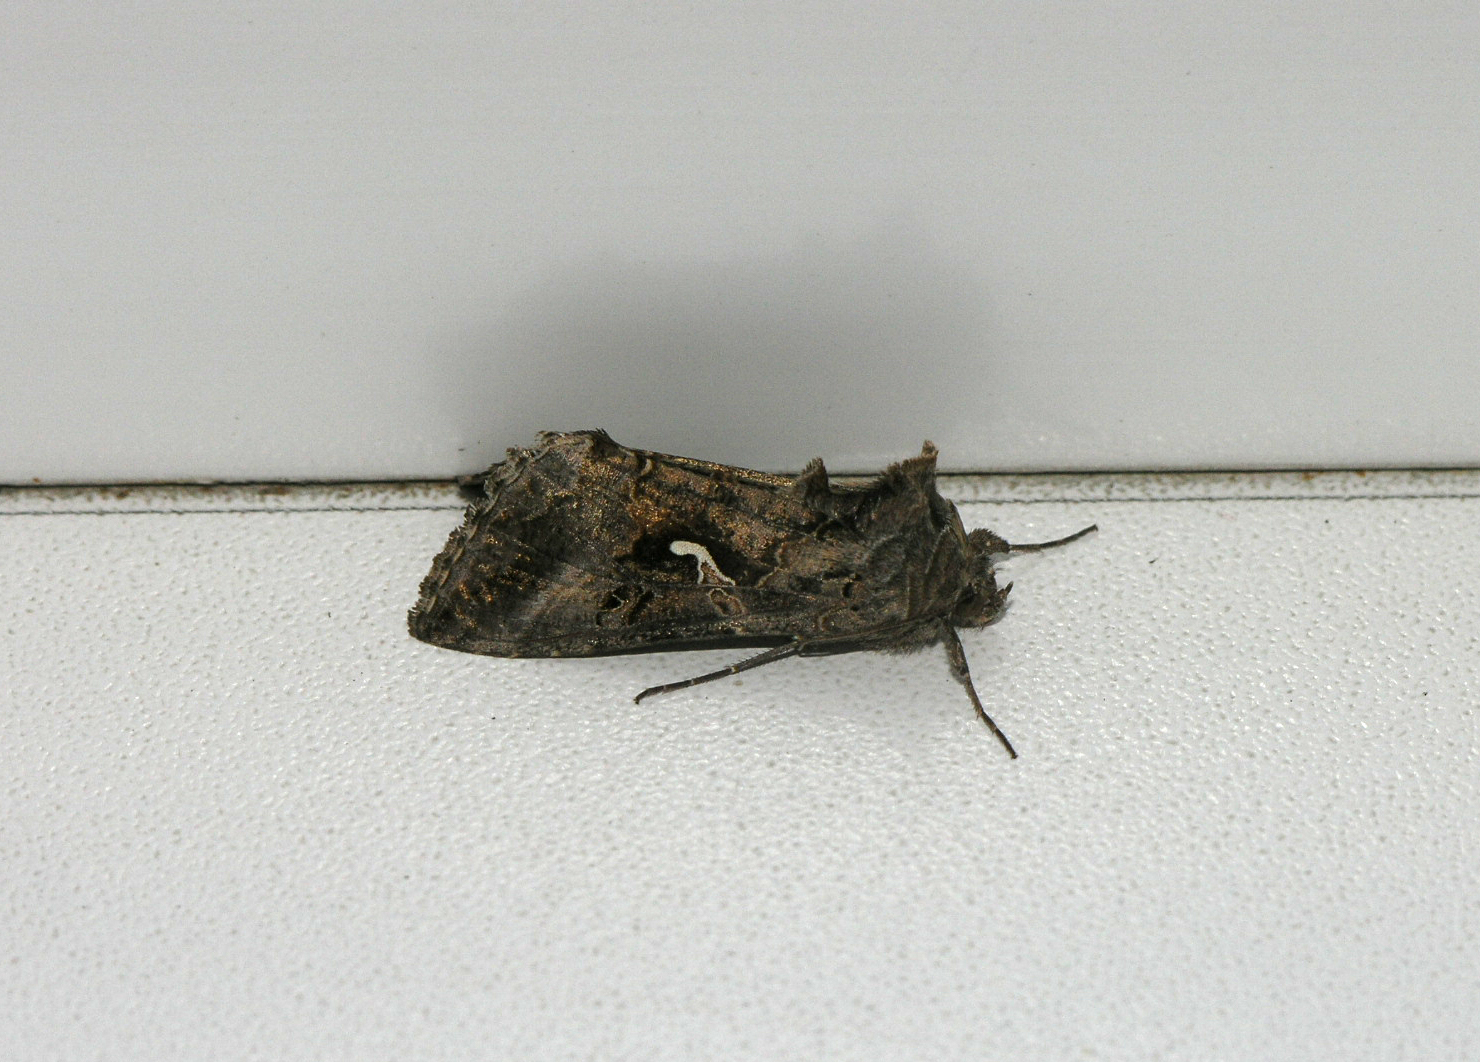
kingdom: Animalia
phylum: Arthropoda
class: Insecta
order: Lepidoptera
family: Noctuidae
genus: Autographa
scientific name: Autographa gamma
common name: Silver y
